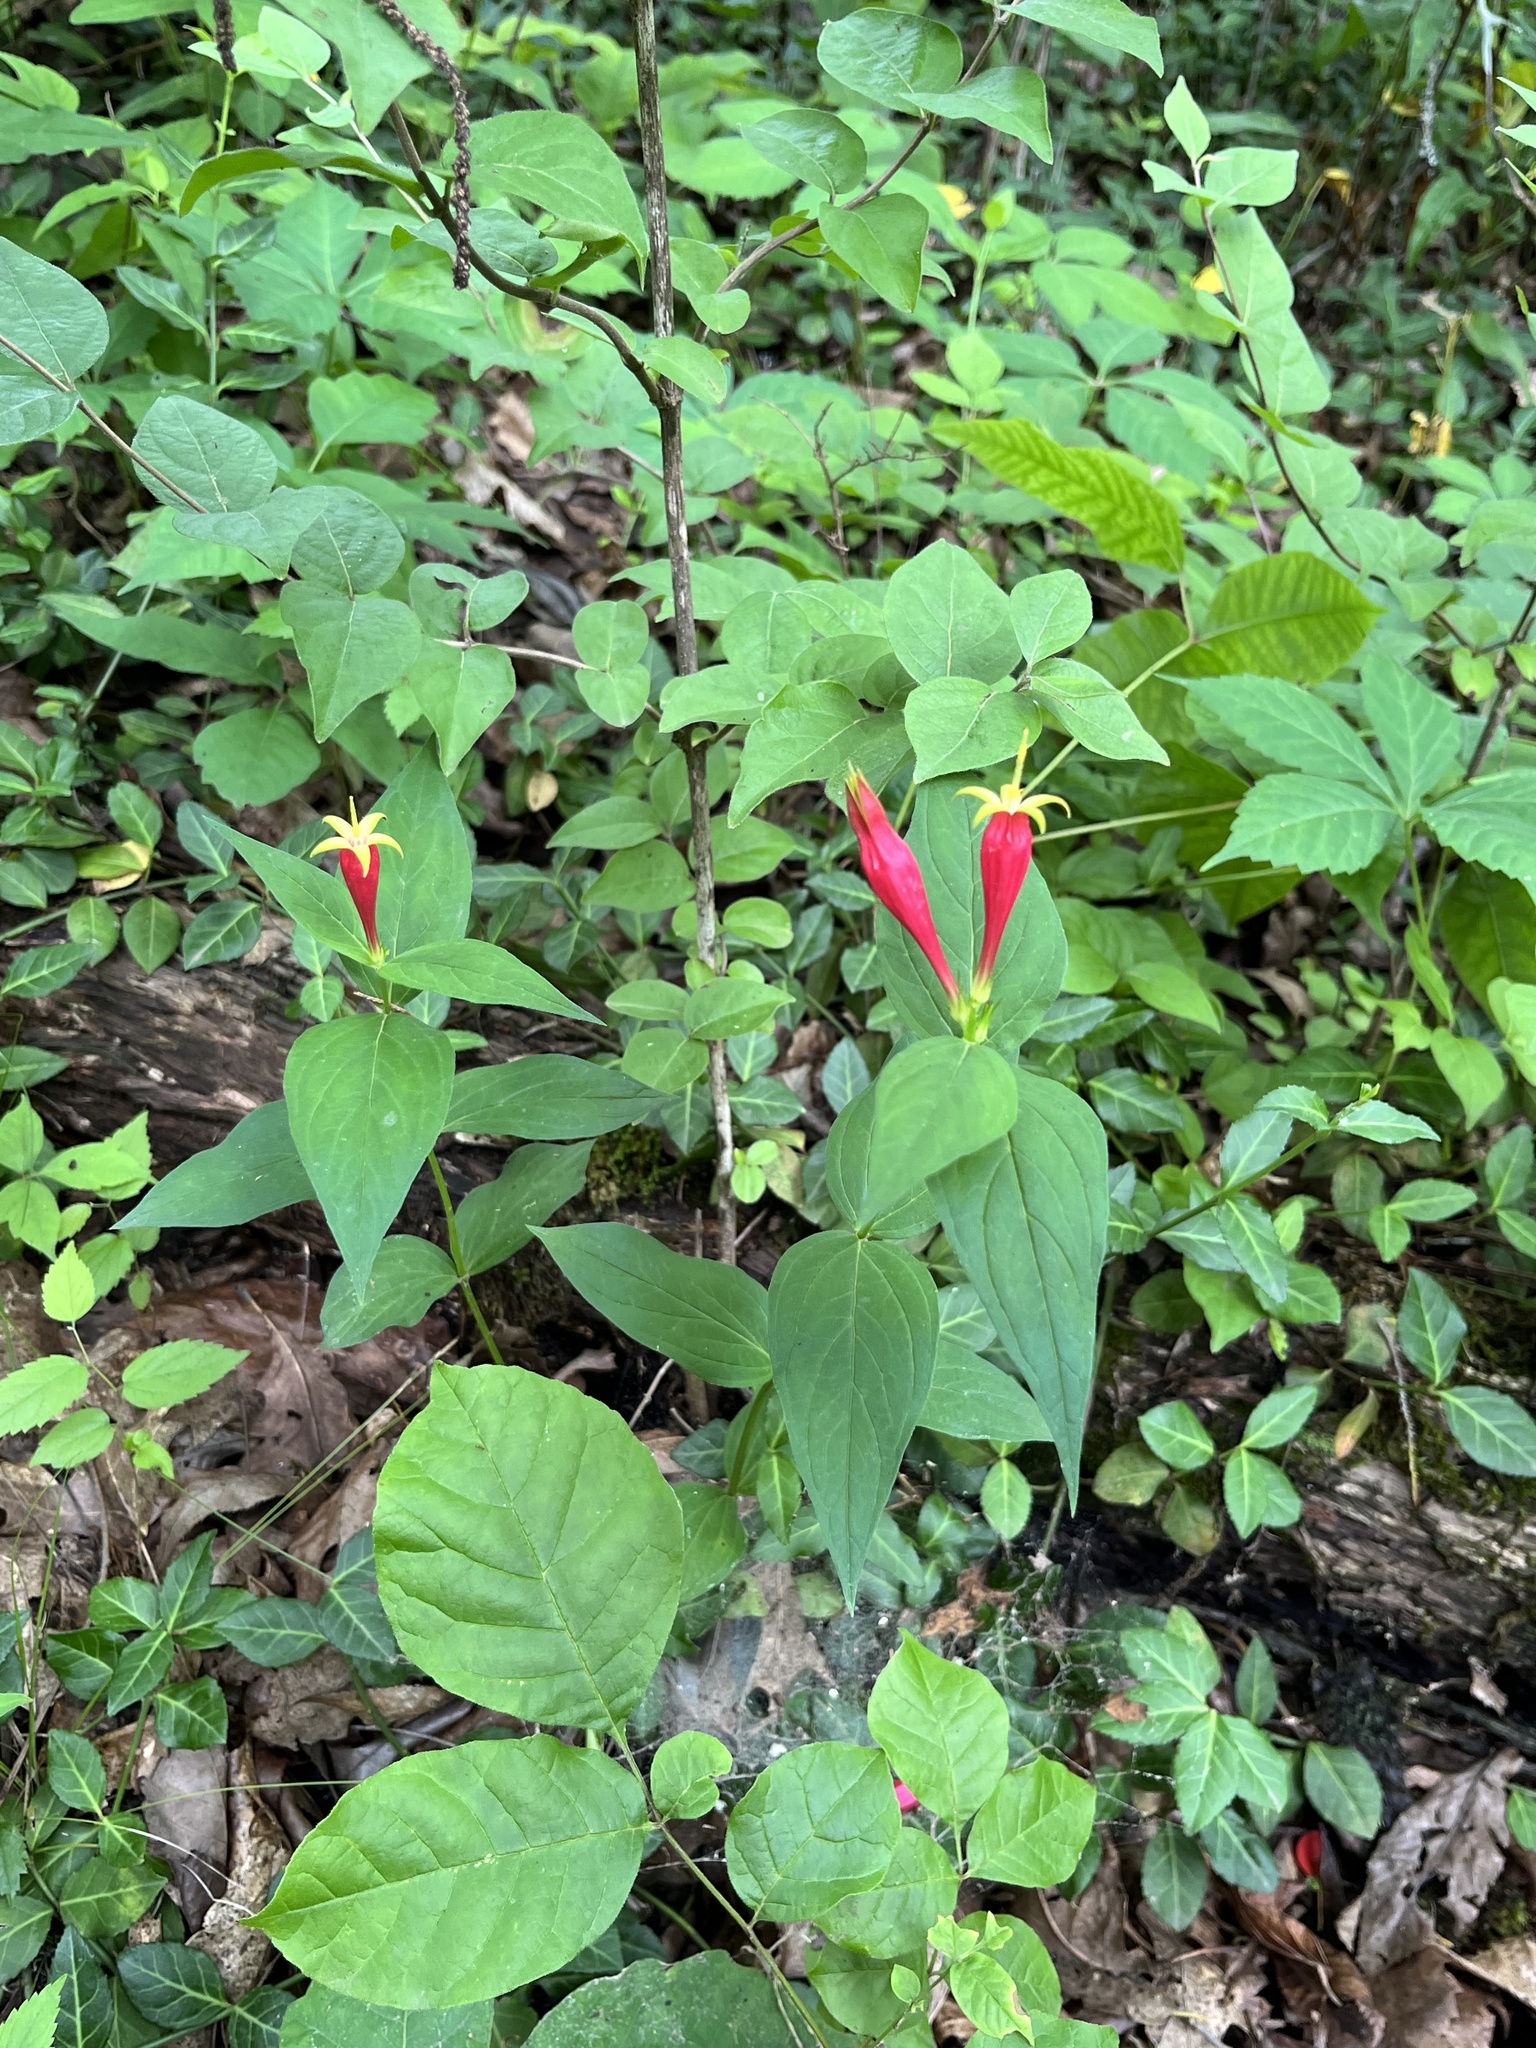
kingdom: Plantae
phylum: Tracheophyta
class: Magnoliopsida
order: Gentianales
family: Loganiaceae
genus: Spigelia
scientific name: Spigelia marilandica
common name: Indian-pink
